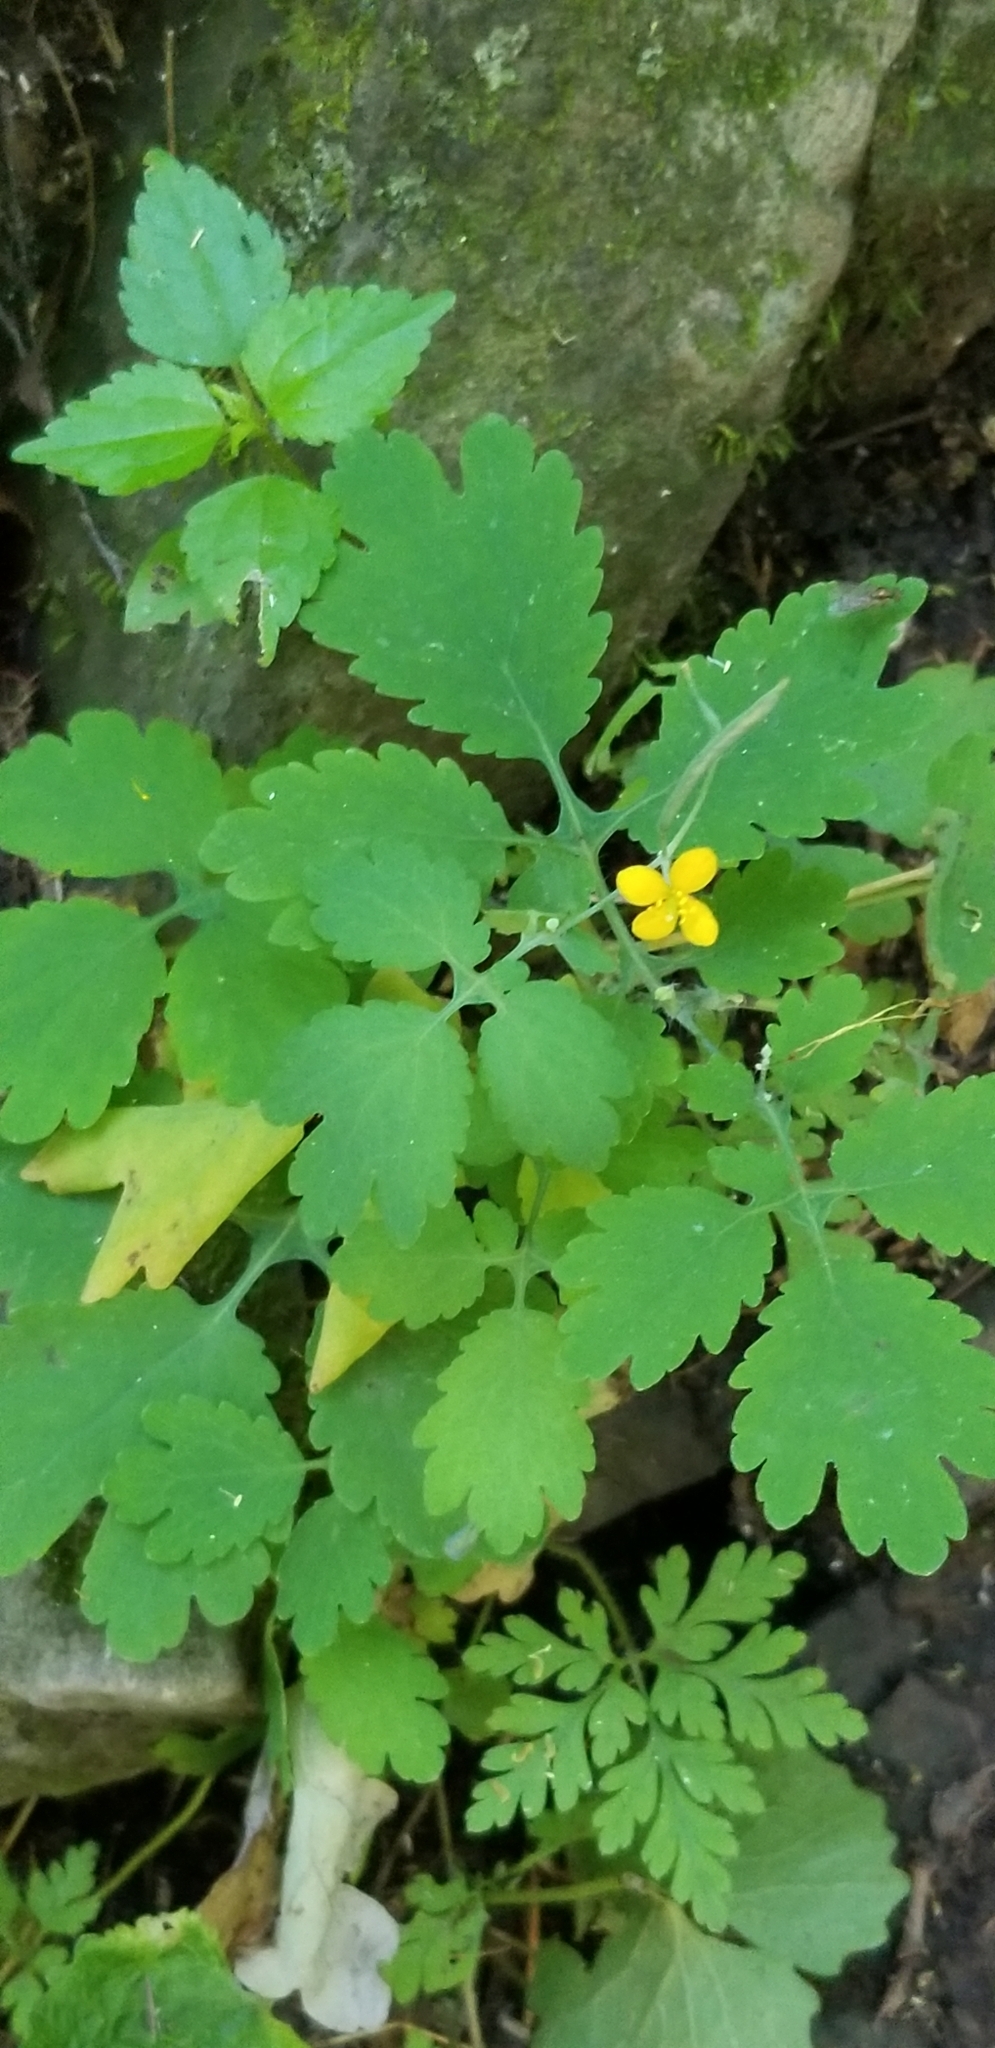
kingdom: Plantae
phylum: Tracheophyta
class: Magnoliopsida
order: Ranunculales
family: Papaveraceae
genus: Chelidonium
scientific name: Chelidonium majus
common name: Greater celandine
